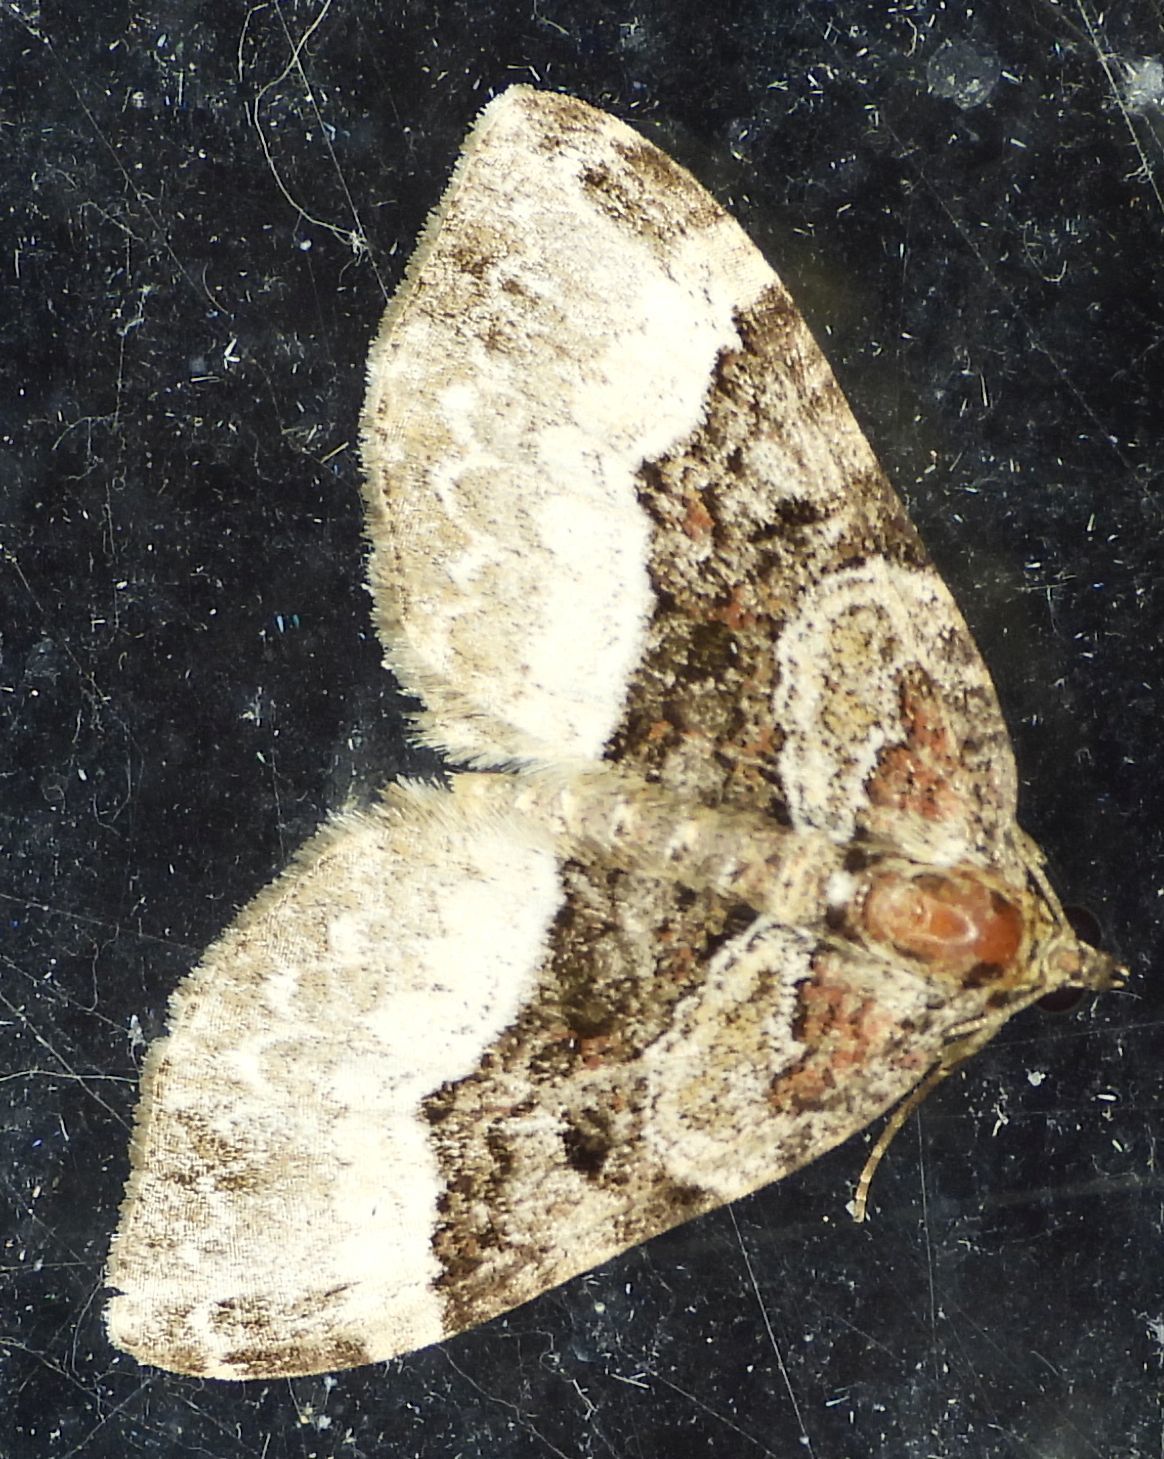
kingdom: Animalia
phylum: Arthropoda
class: Insecta
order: Lepidoptera
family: Geometridae
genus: Euphyia
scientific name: Euphyia intermediata
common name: Sharp-angled carpet
